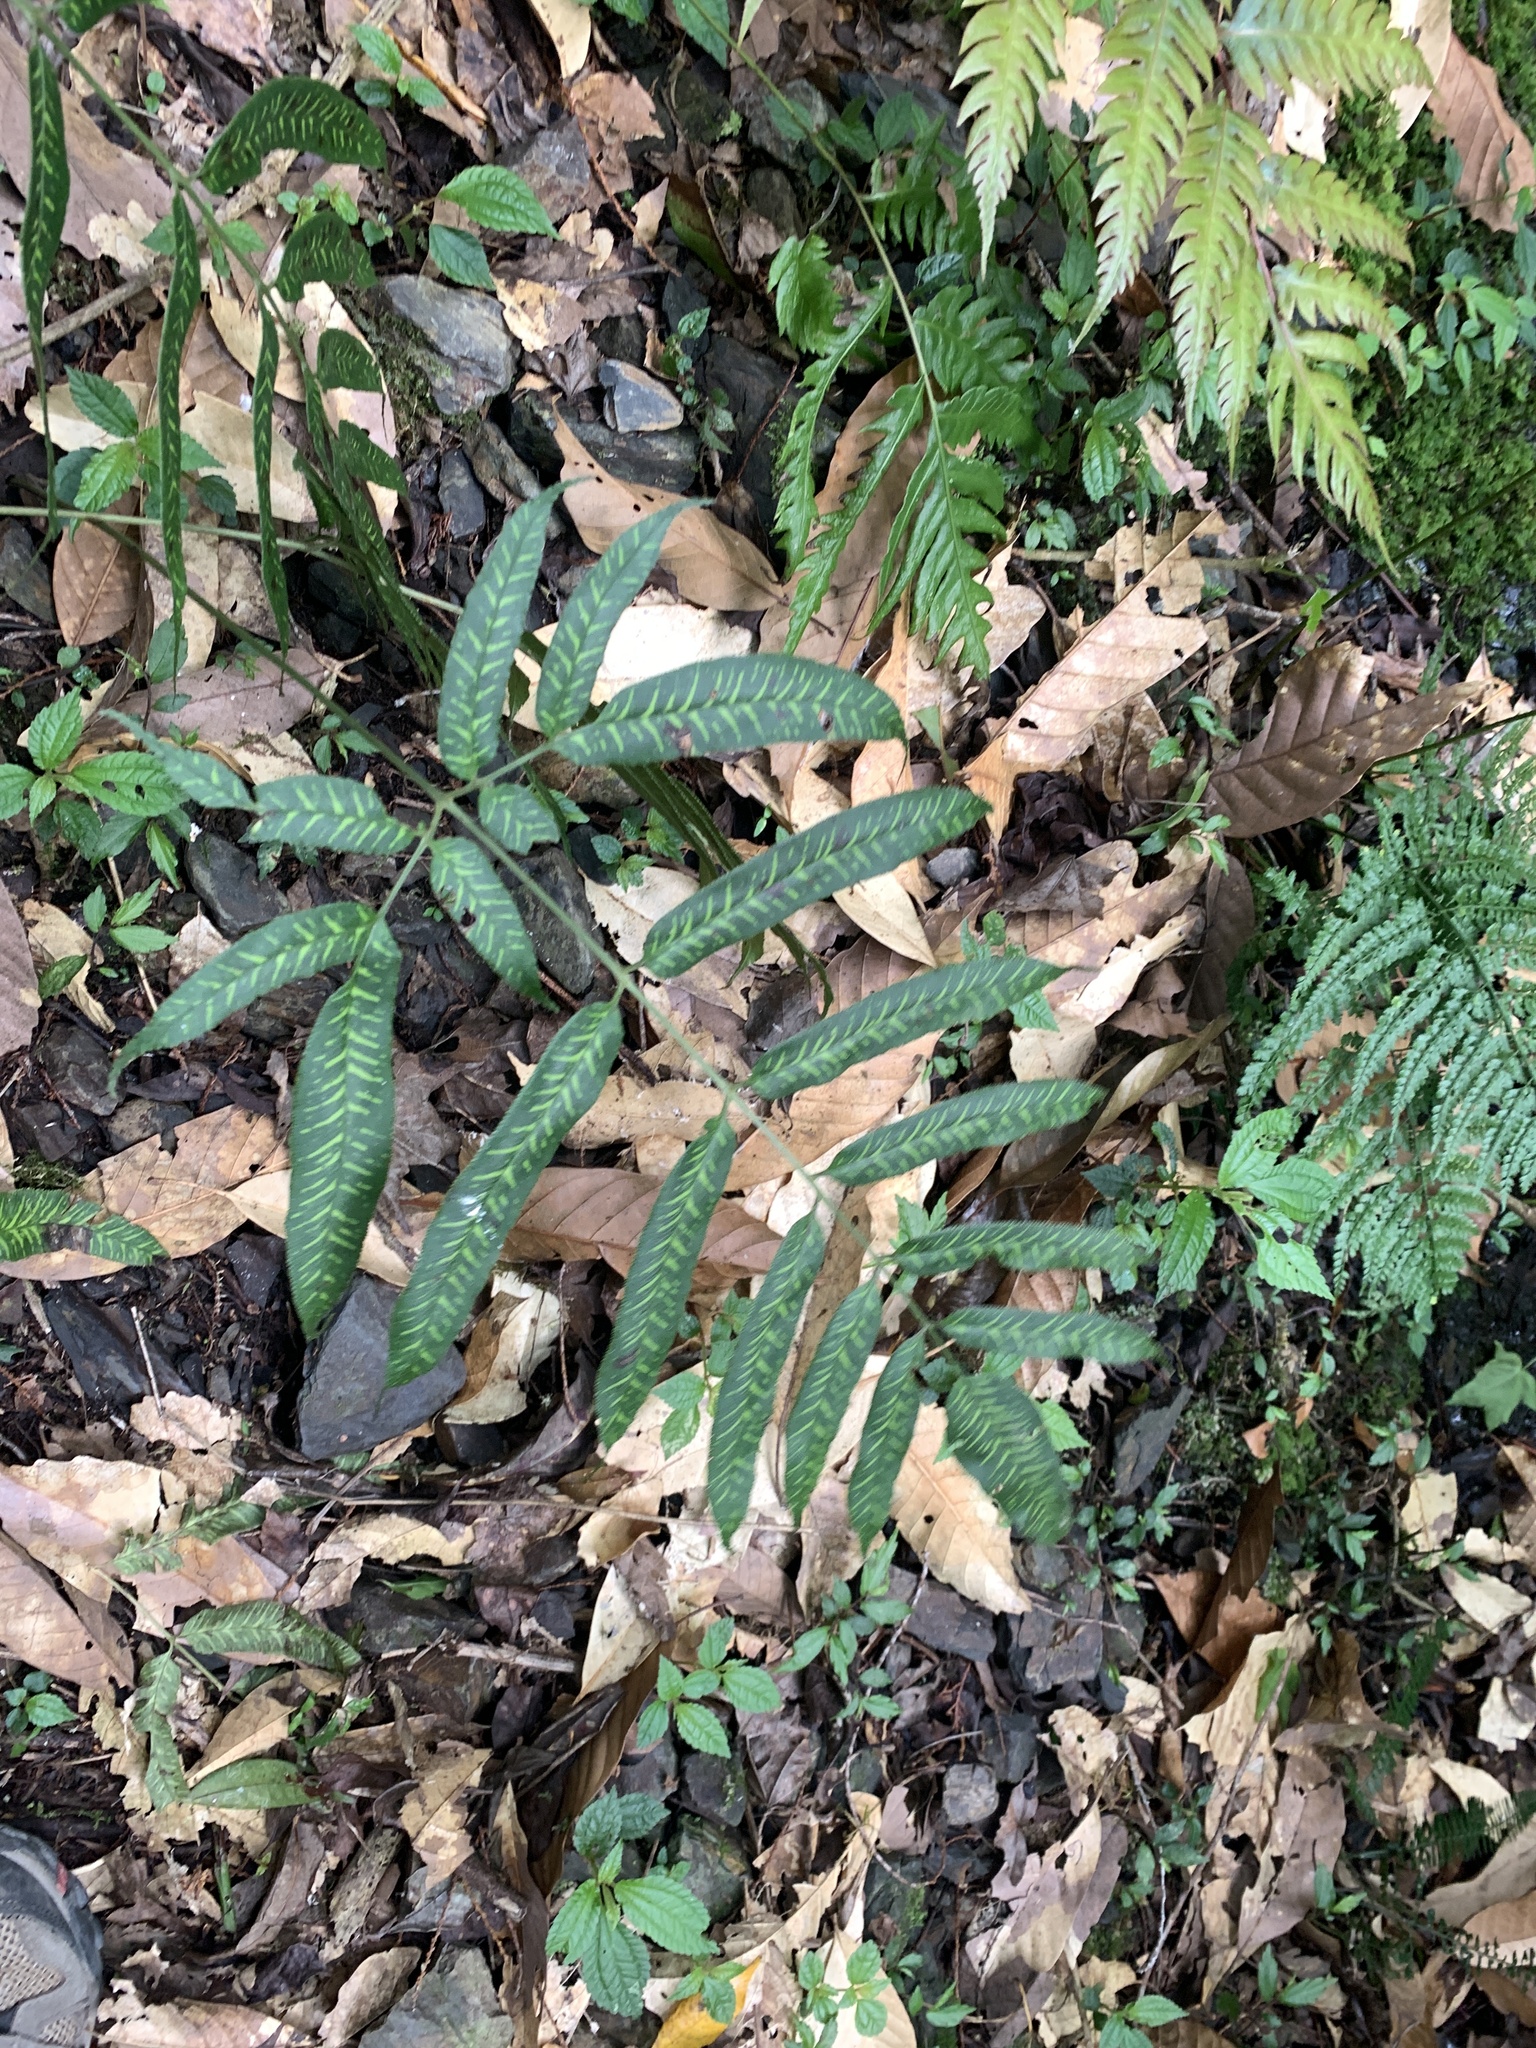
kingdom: Plantae
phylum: Tracheophyta
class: Polypodiopsida
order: Polypodiales
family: Pteridaceae
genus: Coniogramme
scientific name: Coniogramme intermedia
